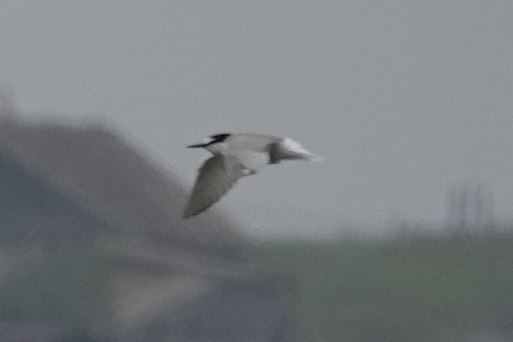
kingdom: Animalia
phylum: Chordata
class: Aves
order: Charadriiformes
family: Laridae
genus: Onychoprion
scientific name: Onychoprion aleuticus
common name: Aleutian tern
